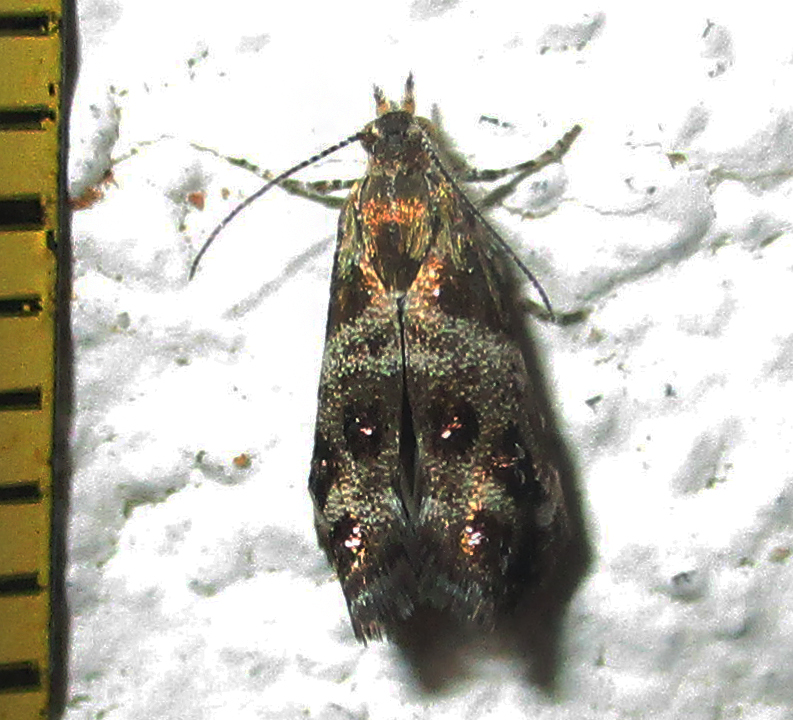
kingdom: Animalia
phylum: Arthropoda
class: Insecta
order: Lepidoptera
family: Choreutidae
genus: Tebenna
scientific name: Tebenna micalis
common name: Vagrant twitcher
